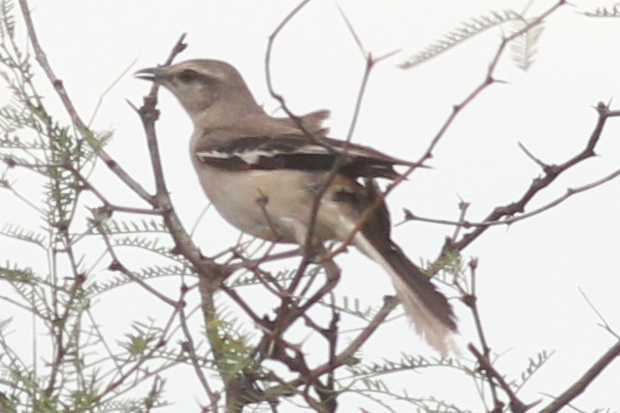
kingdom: Animalia
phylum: Chordata
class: Aves
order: Passeriformes
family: Mimidae
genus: Mimus
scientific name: Mimus triurus
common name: White-banded mockingbird
